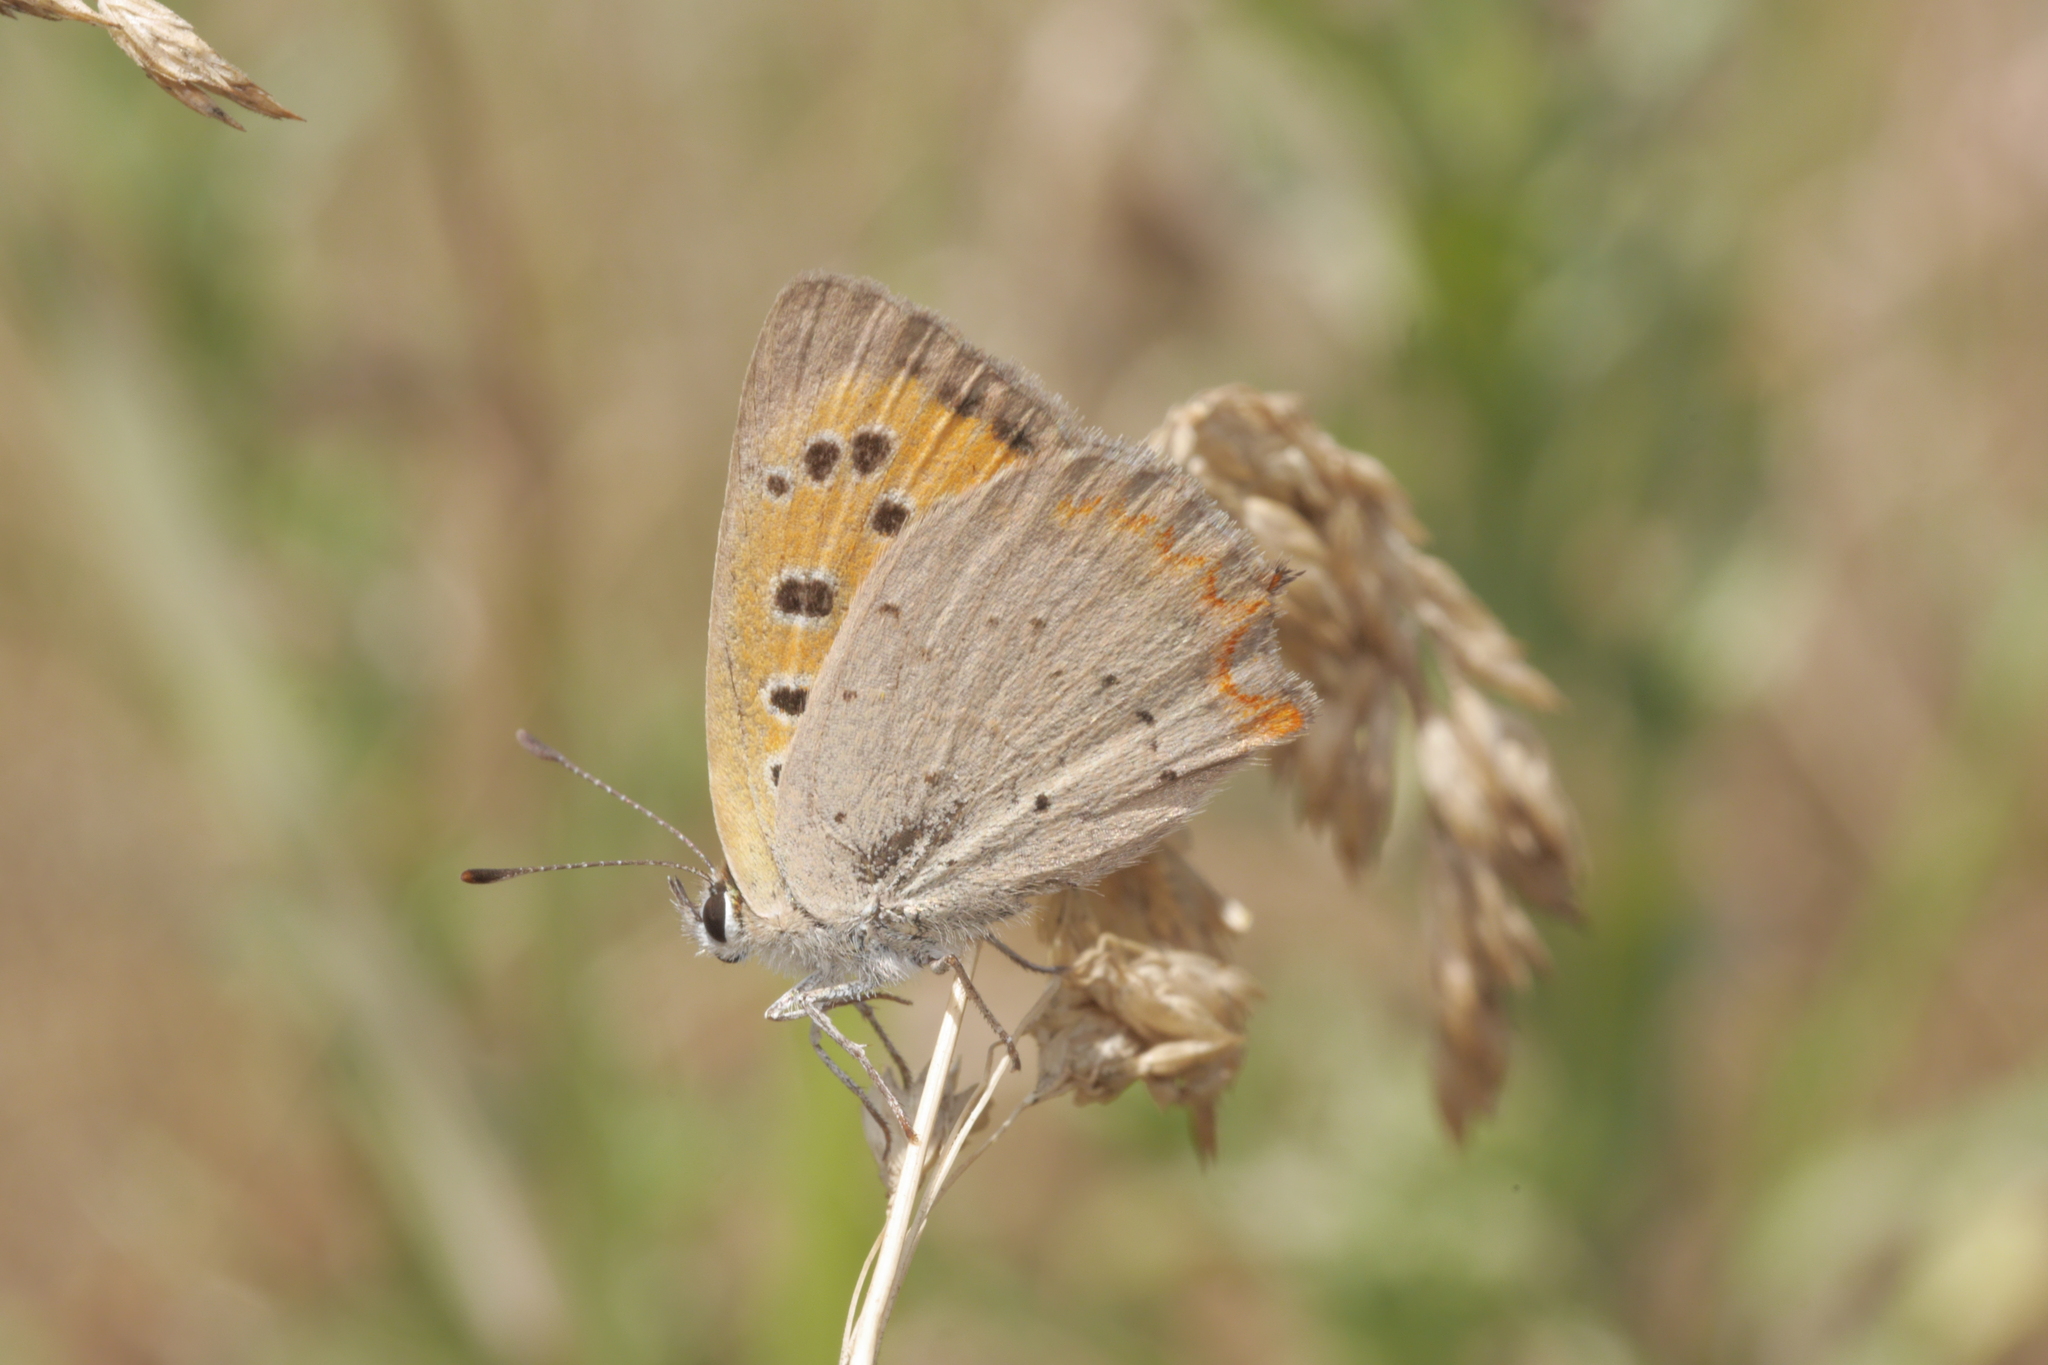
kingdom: Animalia
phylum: Arthropoda
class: Insecta
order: Lepidoptera
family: Lycaenidae
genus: Lycaena
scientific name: Lycaena phlaeas
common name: Small copper
